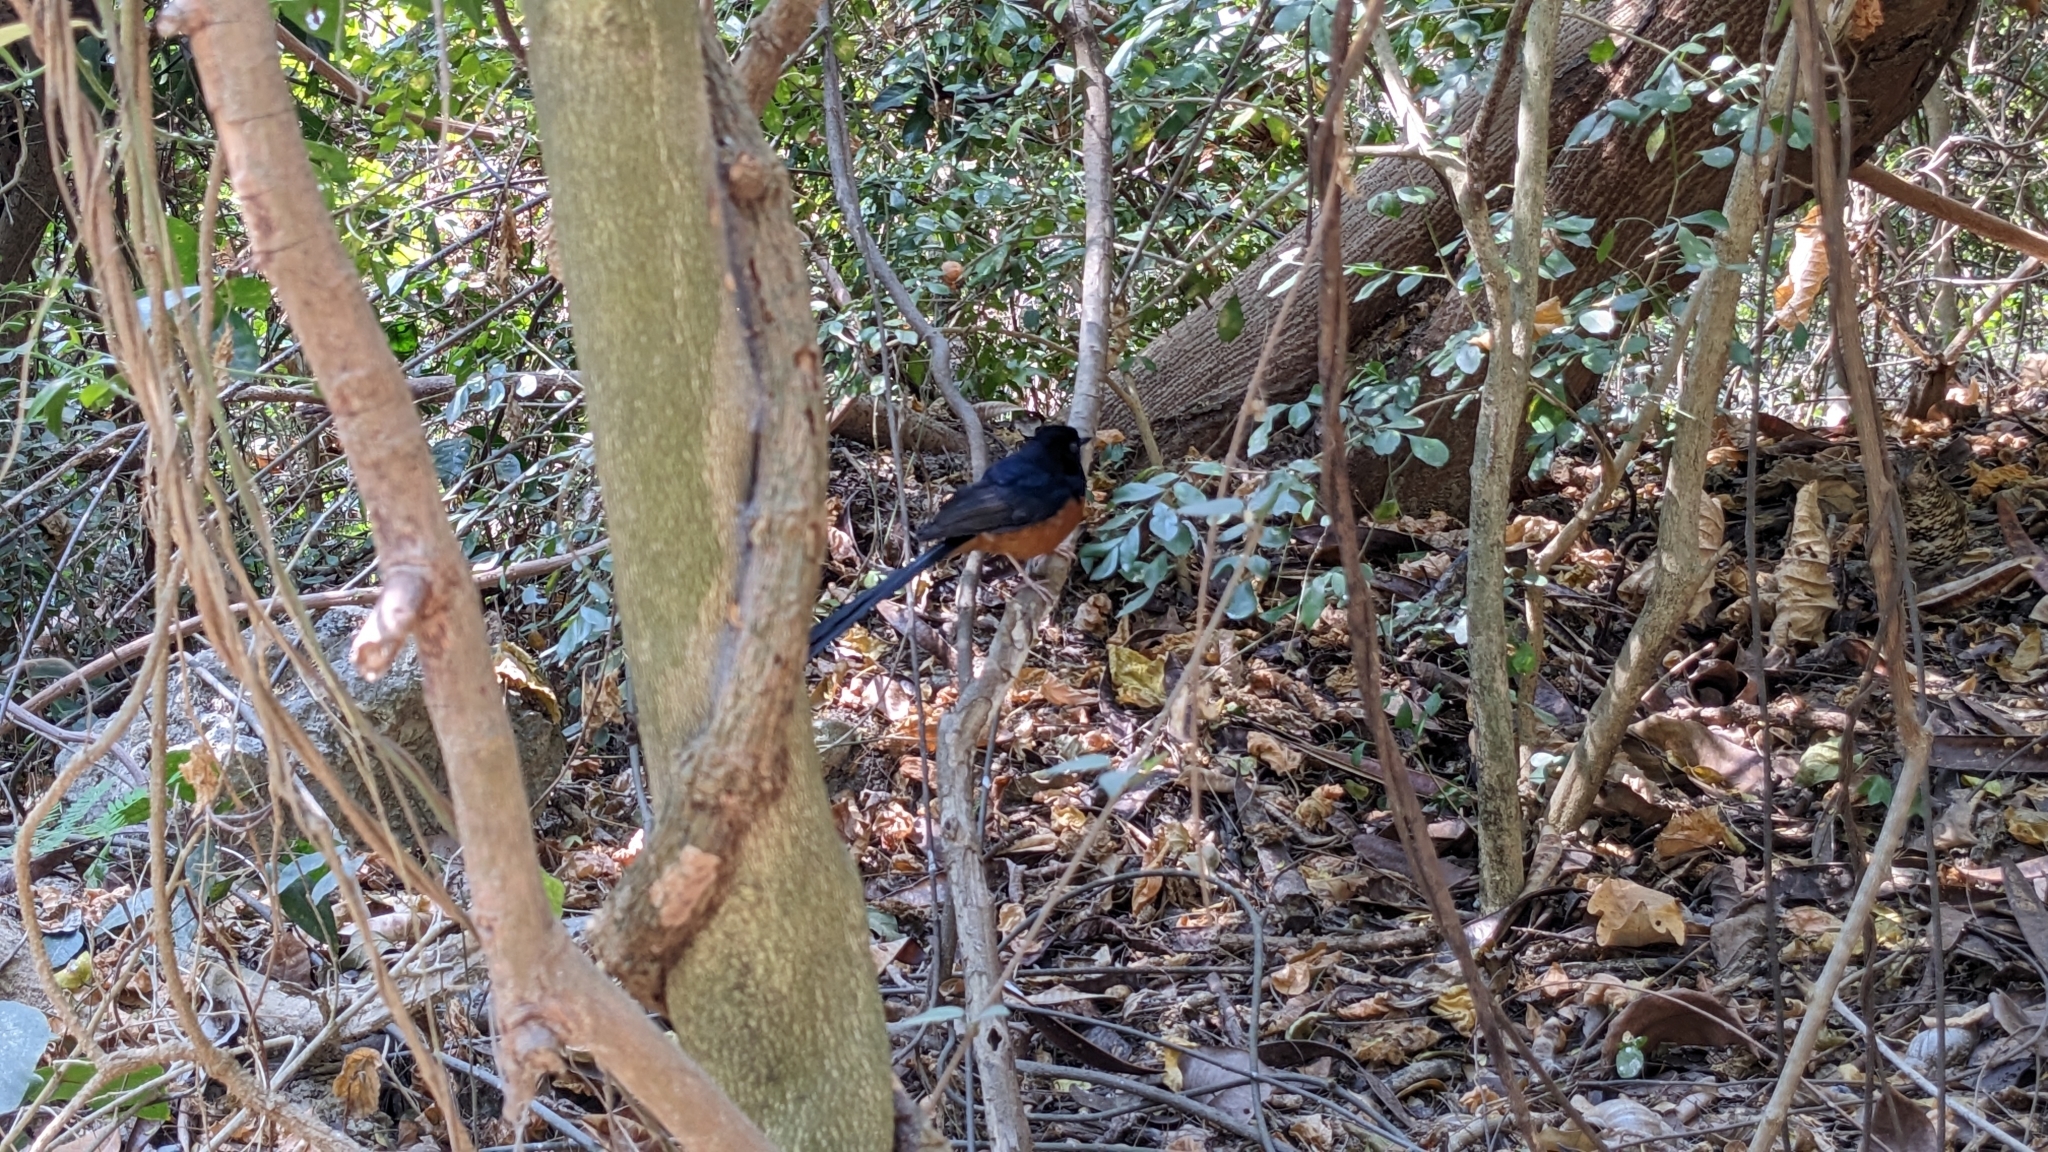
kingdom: Animalia
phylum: Chordata
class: Aves
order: Passeriformes
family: Muscicapidae
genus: Copsychus
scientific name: Copsychus malabaricus
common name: White-rumped shama
